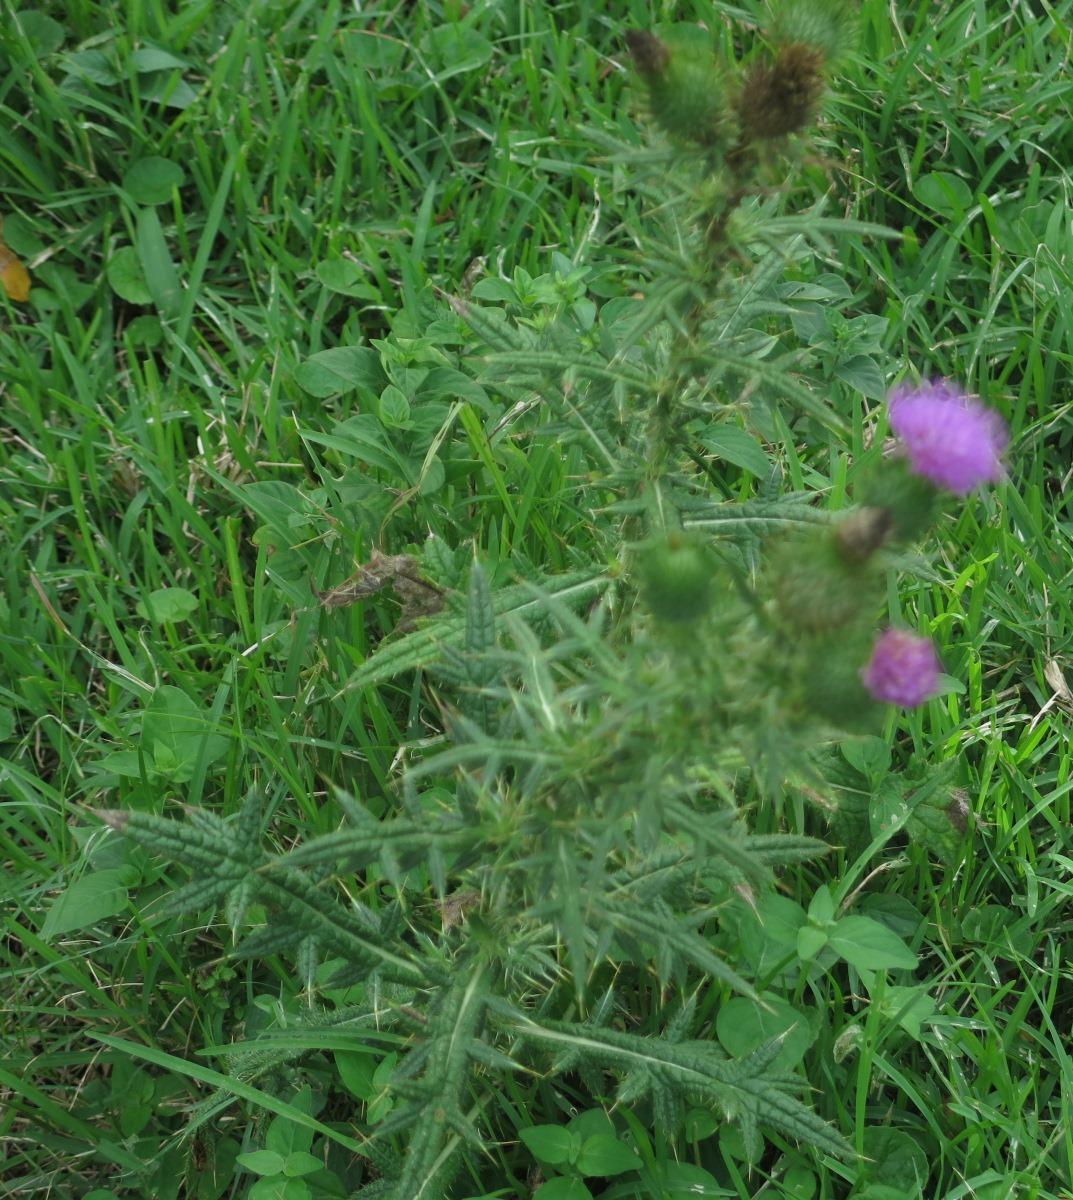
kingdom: Plantae
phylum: Tracheophyta
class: Magnoliopsida
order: Asterales
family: Asteraceae
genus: Cirsium
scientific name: Cirsium vulgare
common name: Bull thistle
